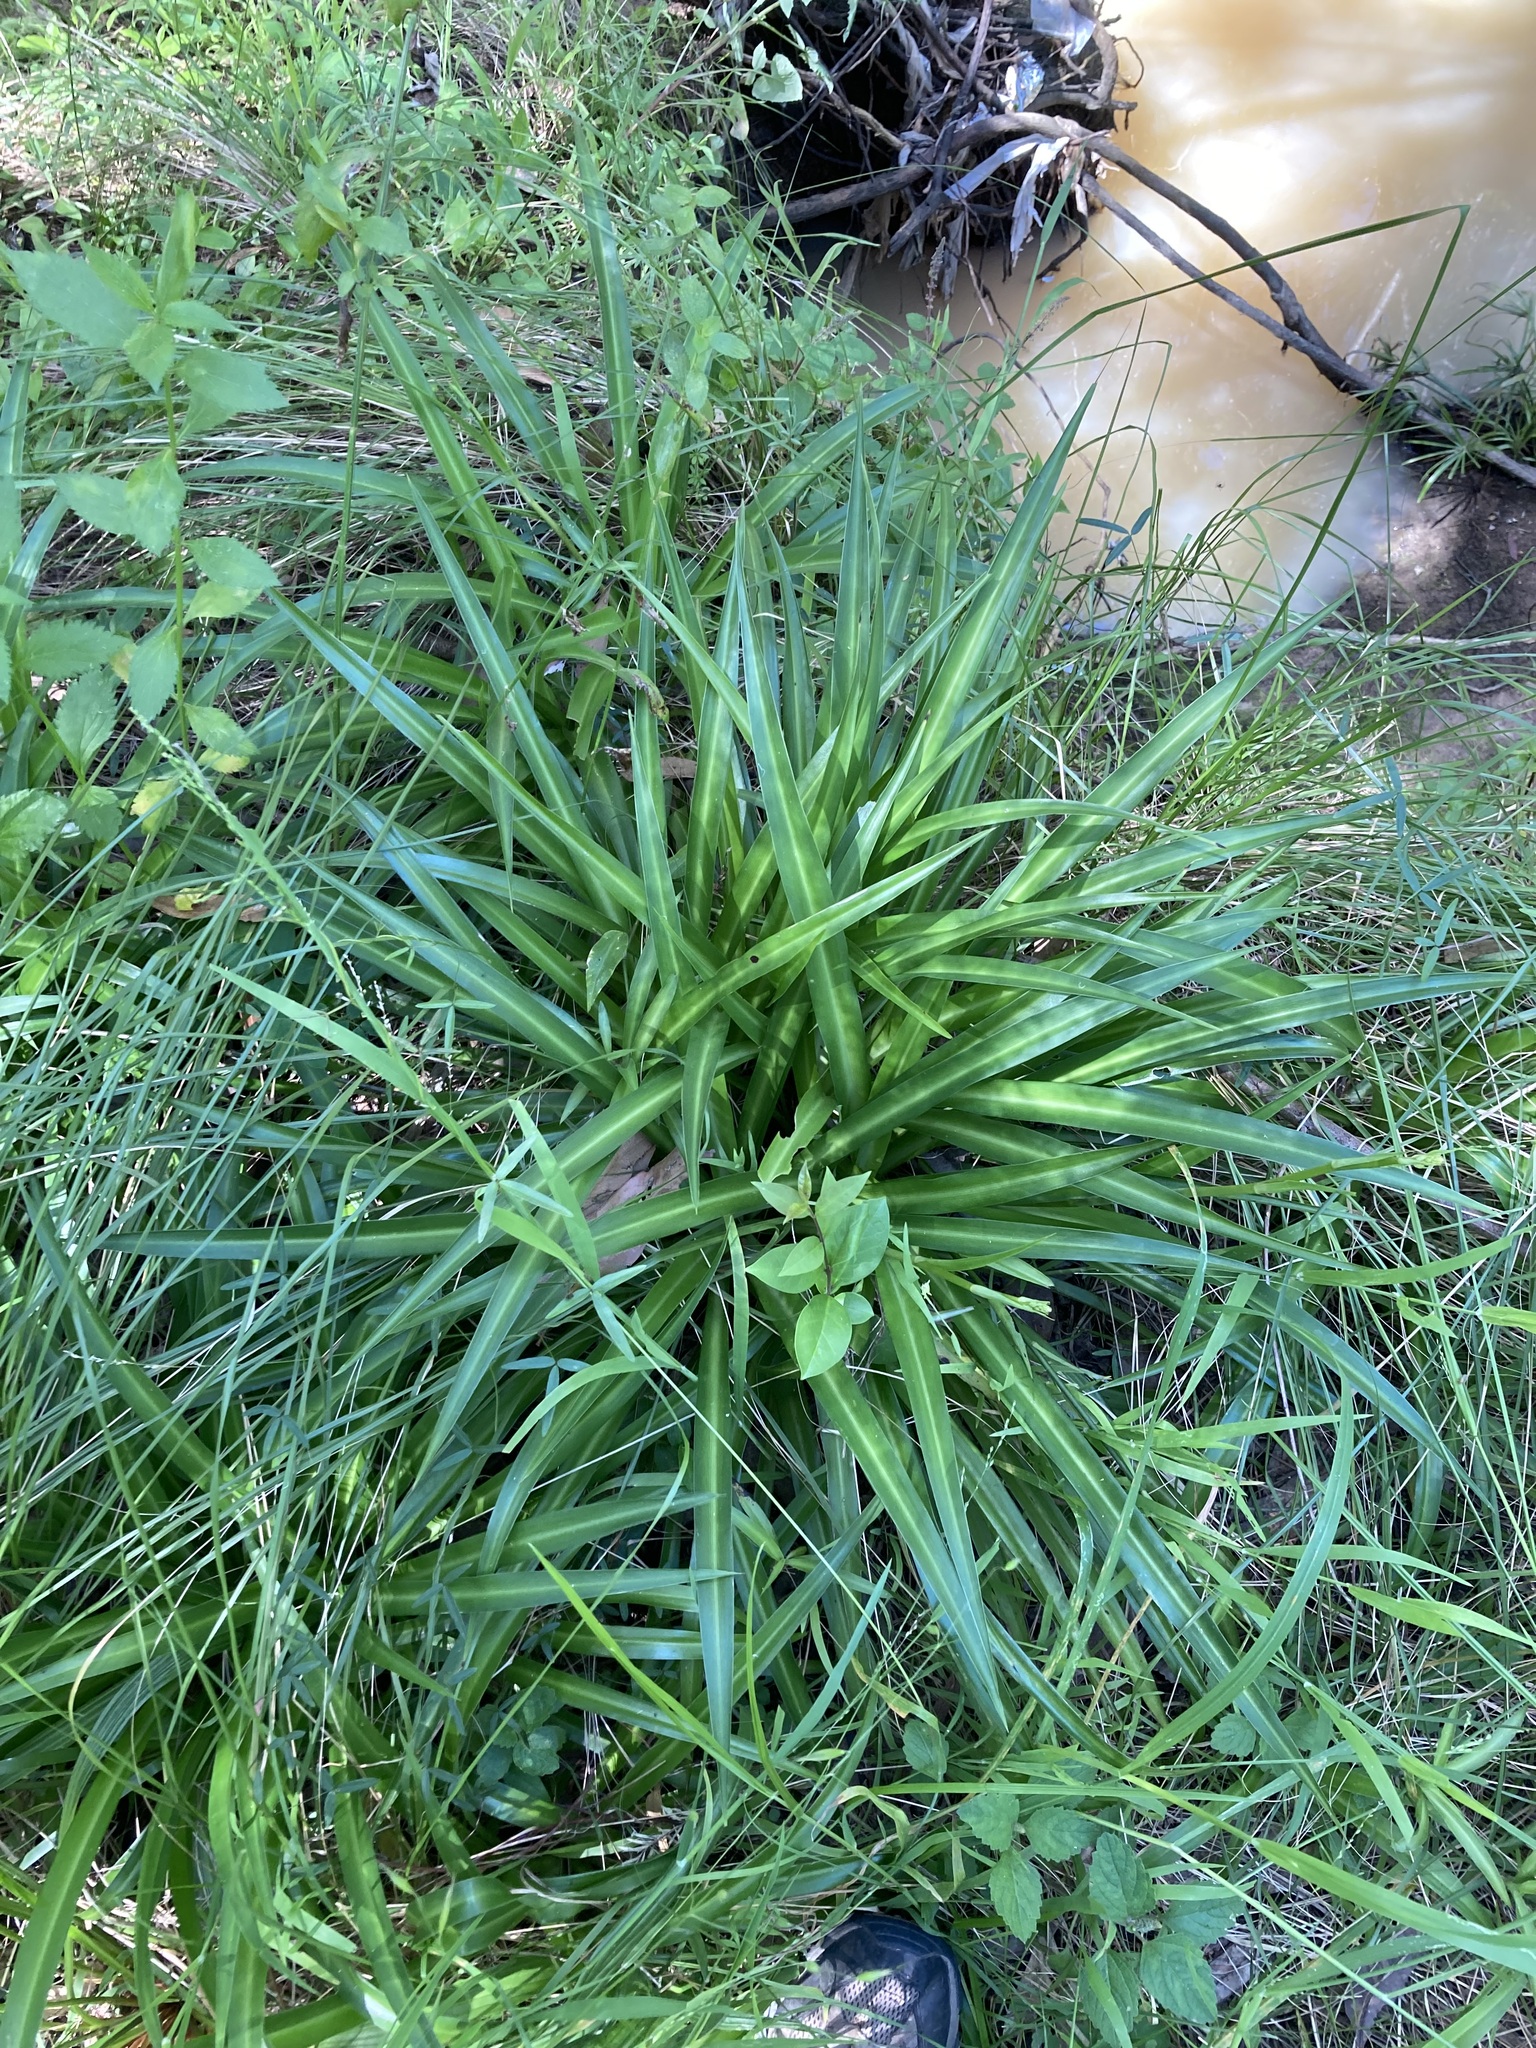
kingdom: Plantae
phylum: Tracheophyta
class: Liliopsida
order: Asparagales
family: Asparagaceae
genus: Chlorophytum
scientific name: Chlorophytum comosum
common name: Spider plant
